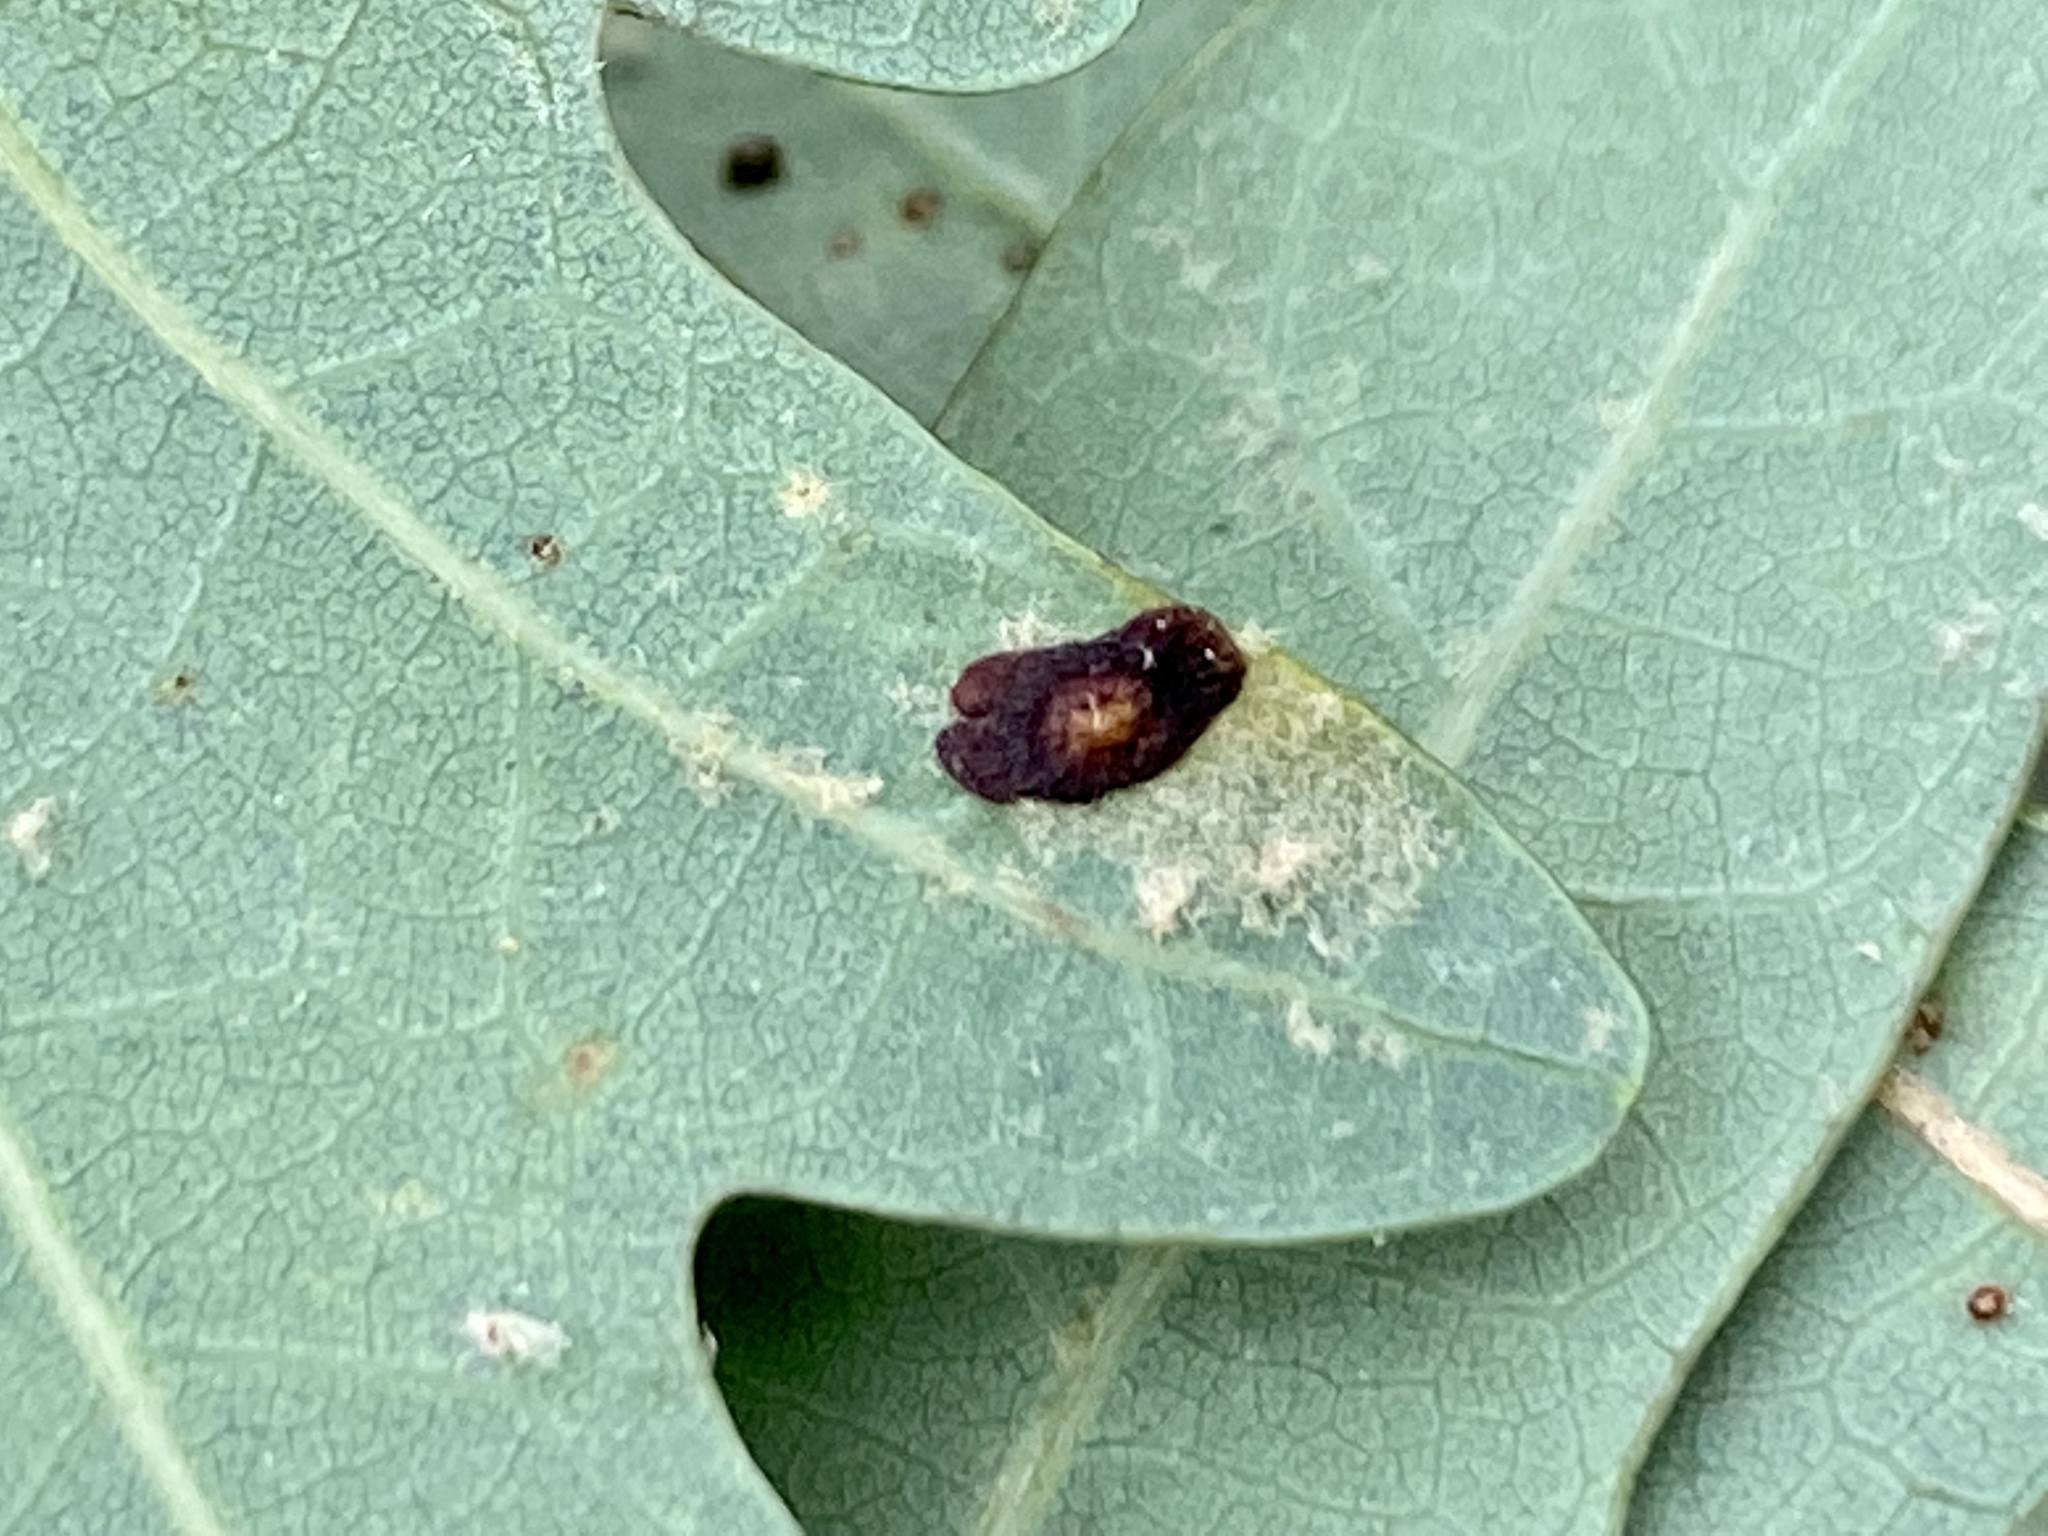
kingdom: Animalia
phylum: Arthropoda
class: Insecta
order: Hymenoptera
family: Cynipidae
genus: Phylloteras
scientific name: Phylloteras
